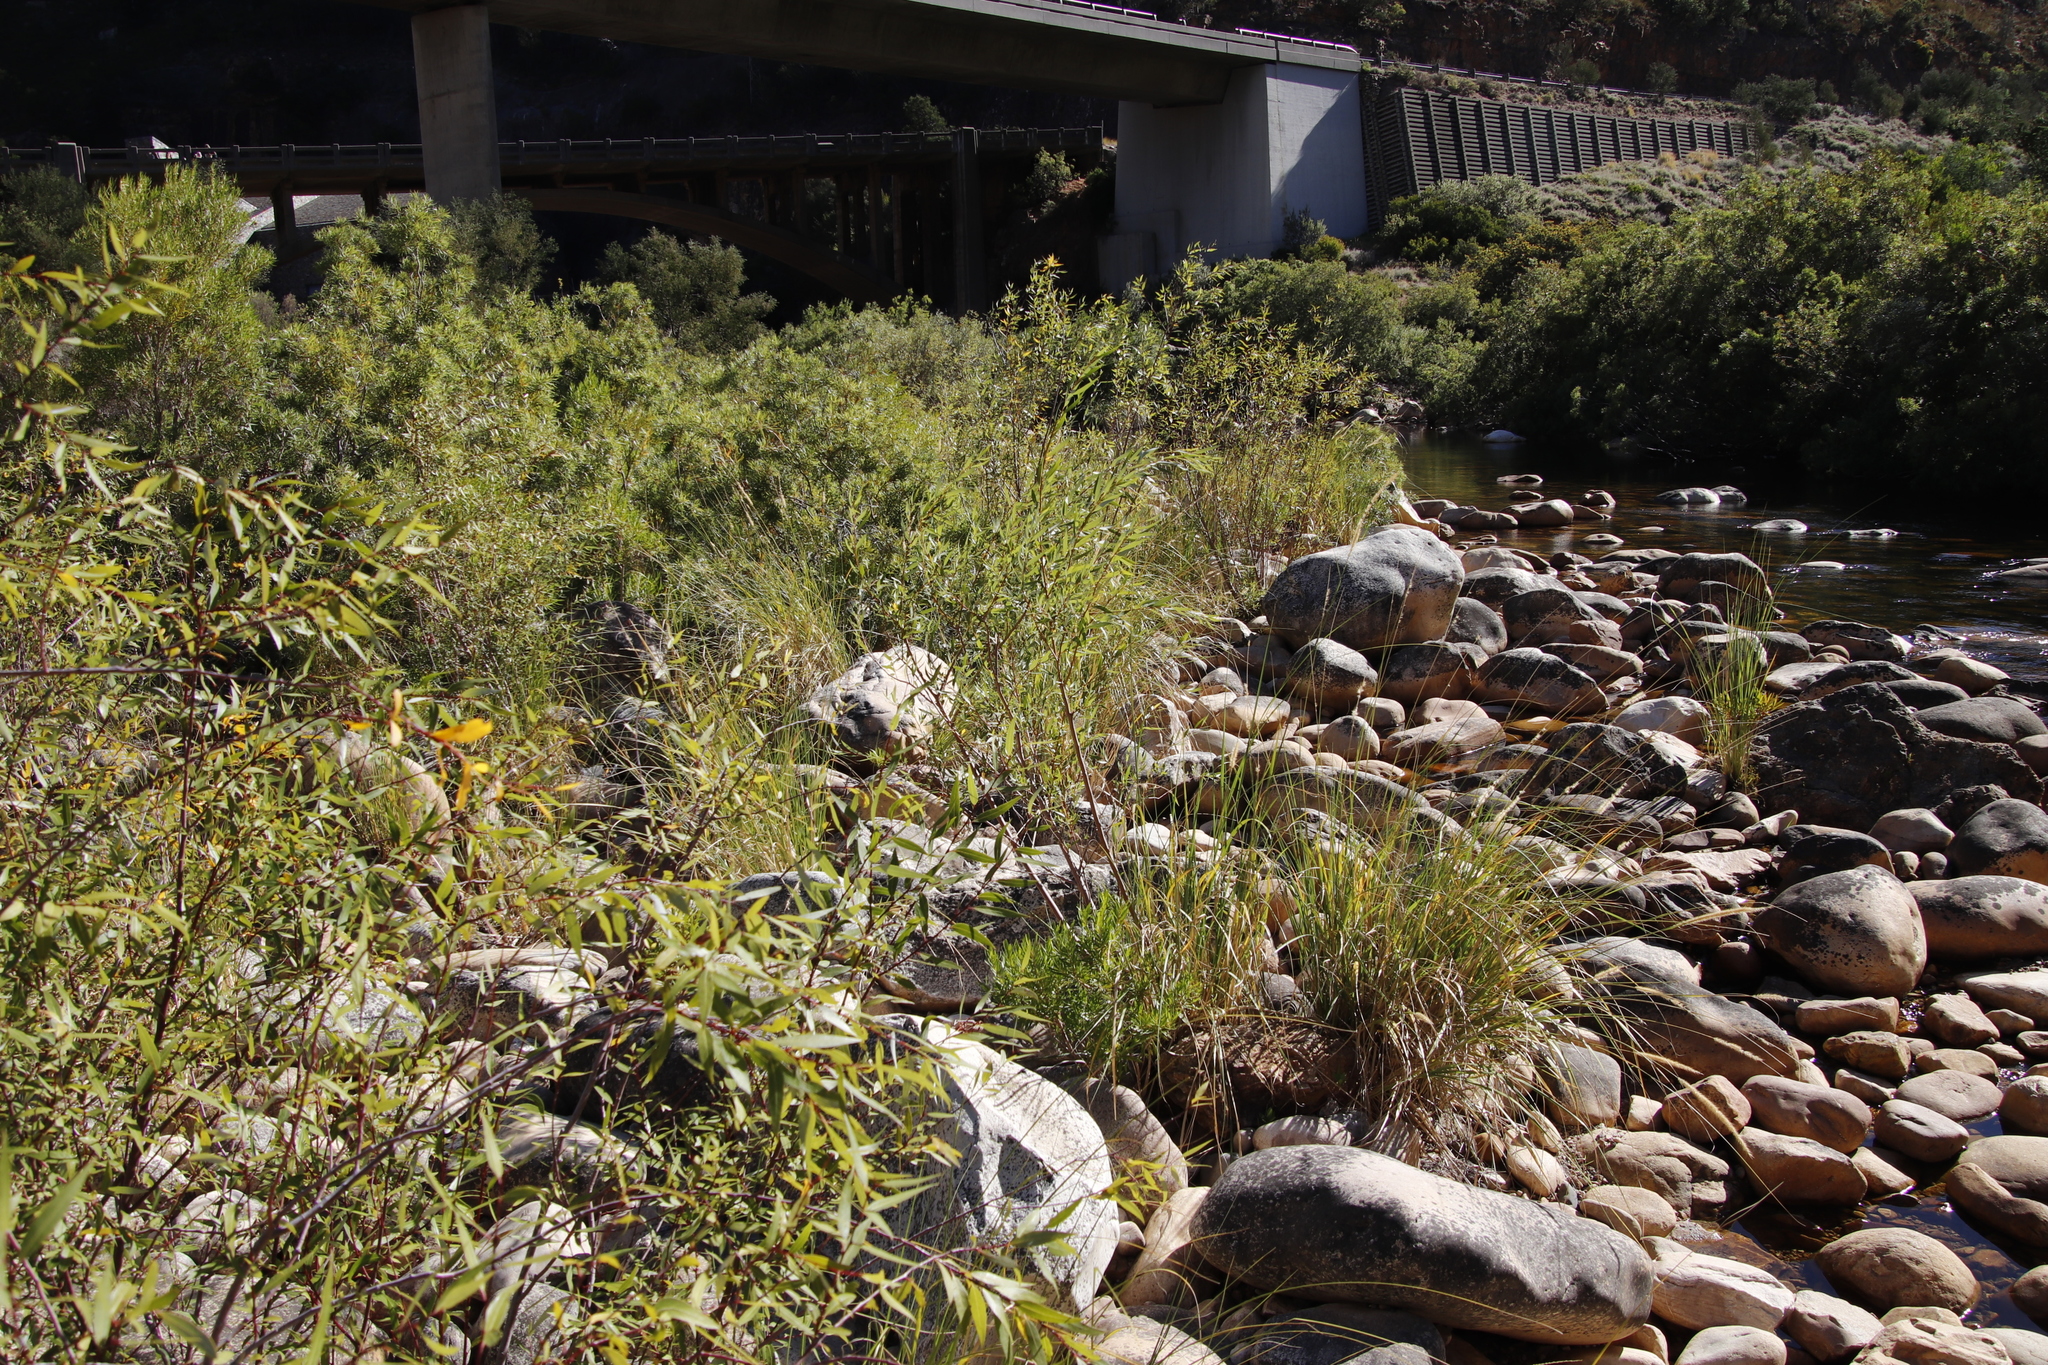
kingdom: Plantae
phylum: Tracheophyta
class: Magnoliopsida
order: Malpighiales
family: Salicaceae
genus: Salix
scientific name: Salix mucronata
